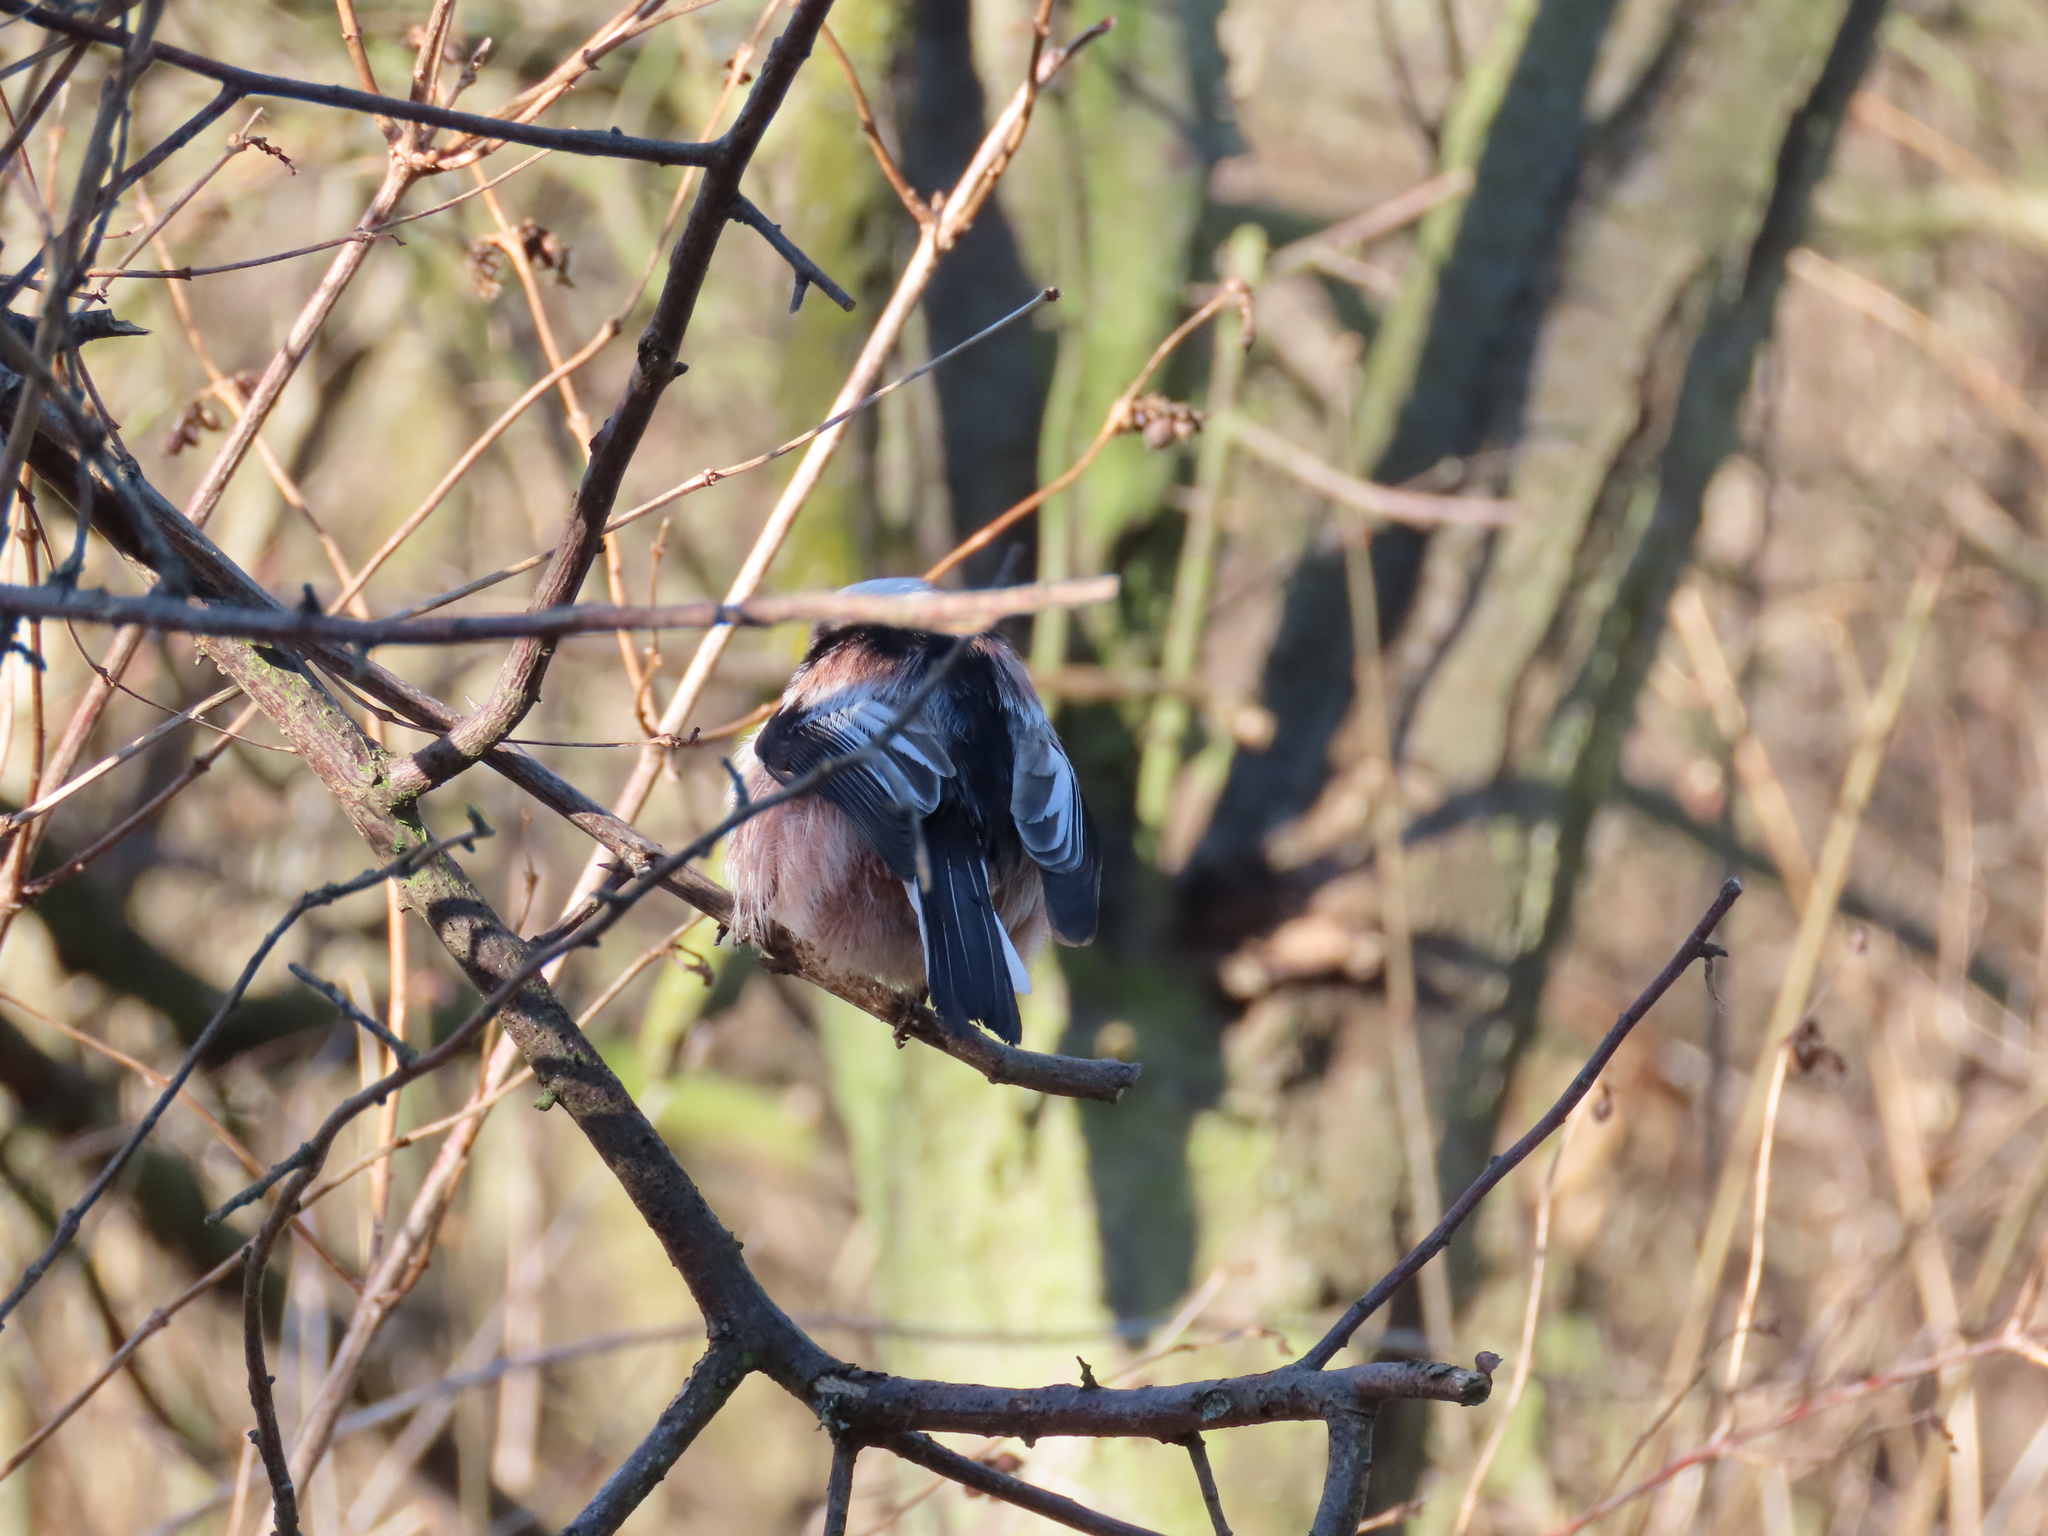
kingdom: Animalia
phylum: Chordata
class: Aves
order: Passeriformes
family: Aegithalidae
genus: Aegithalos
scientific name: Aegithalos caudatus
